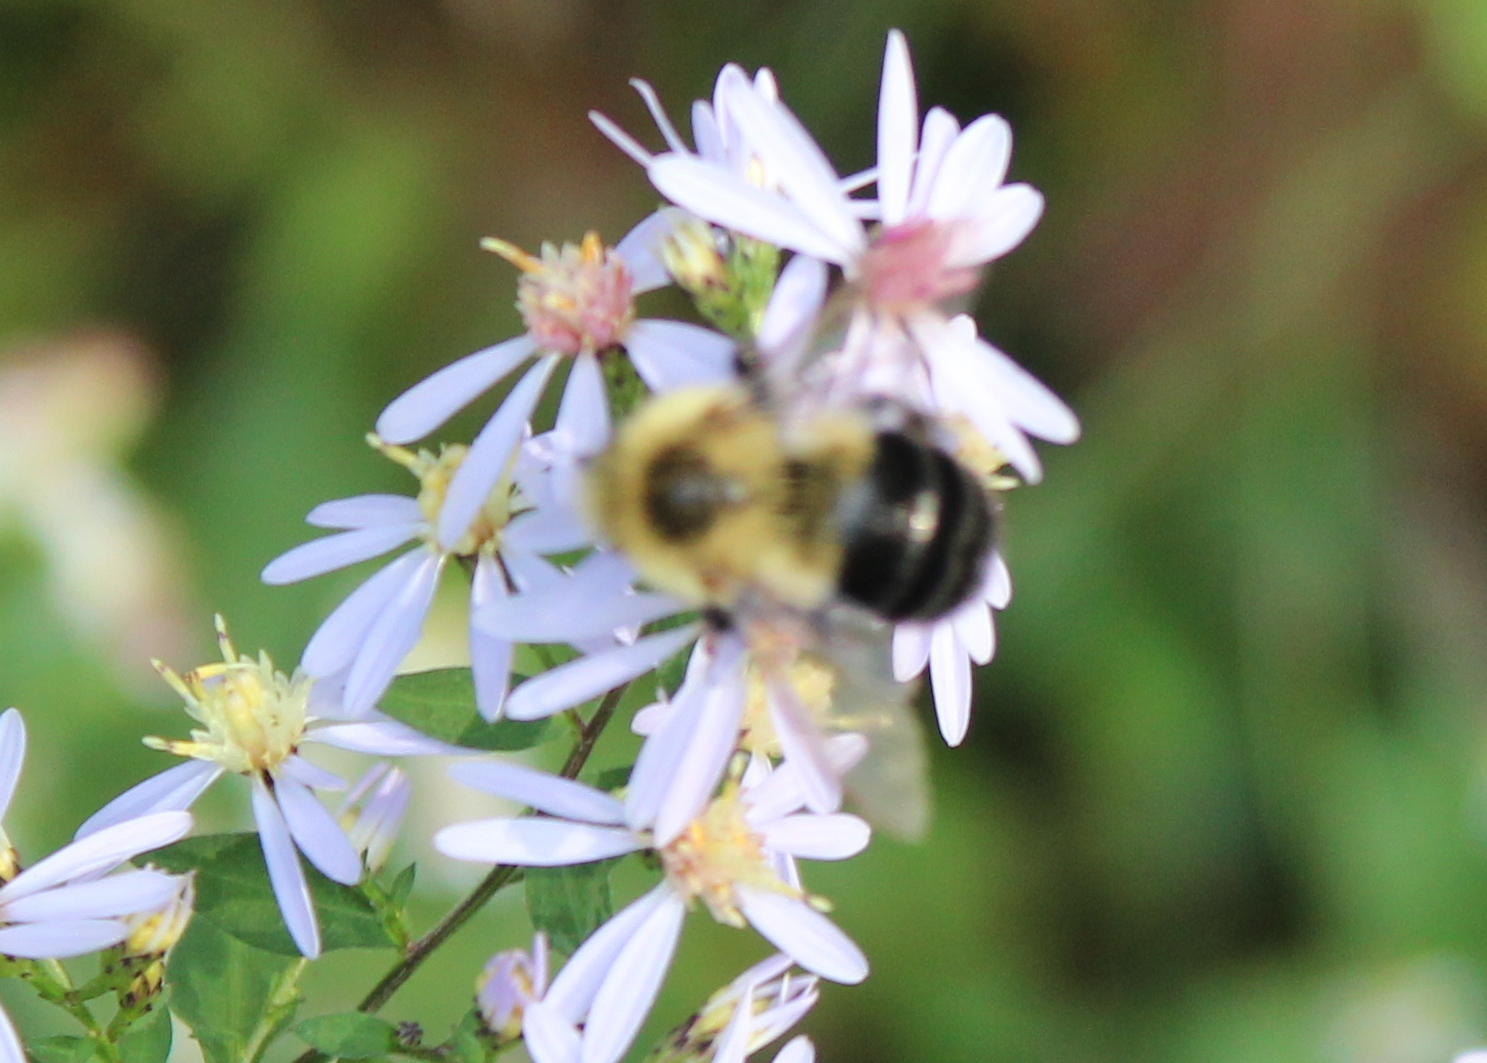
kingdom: Animalia
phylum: Arthropoda
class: Insecta
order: Hymenoptera
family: Apidae
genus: Bombus
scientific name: Bombus impatiens
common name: Common eastern bumble bee
